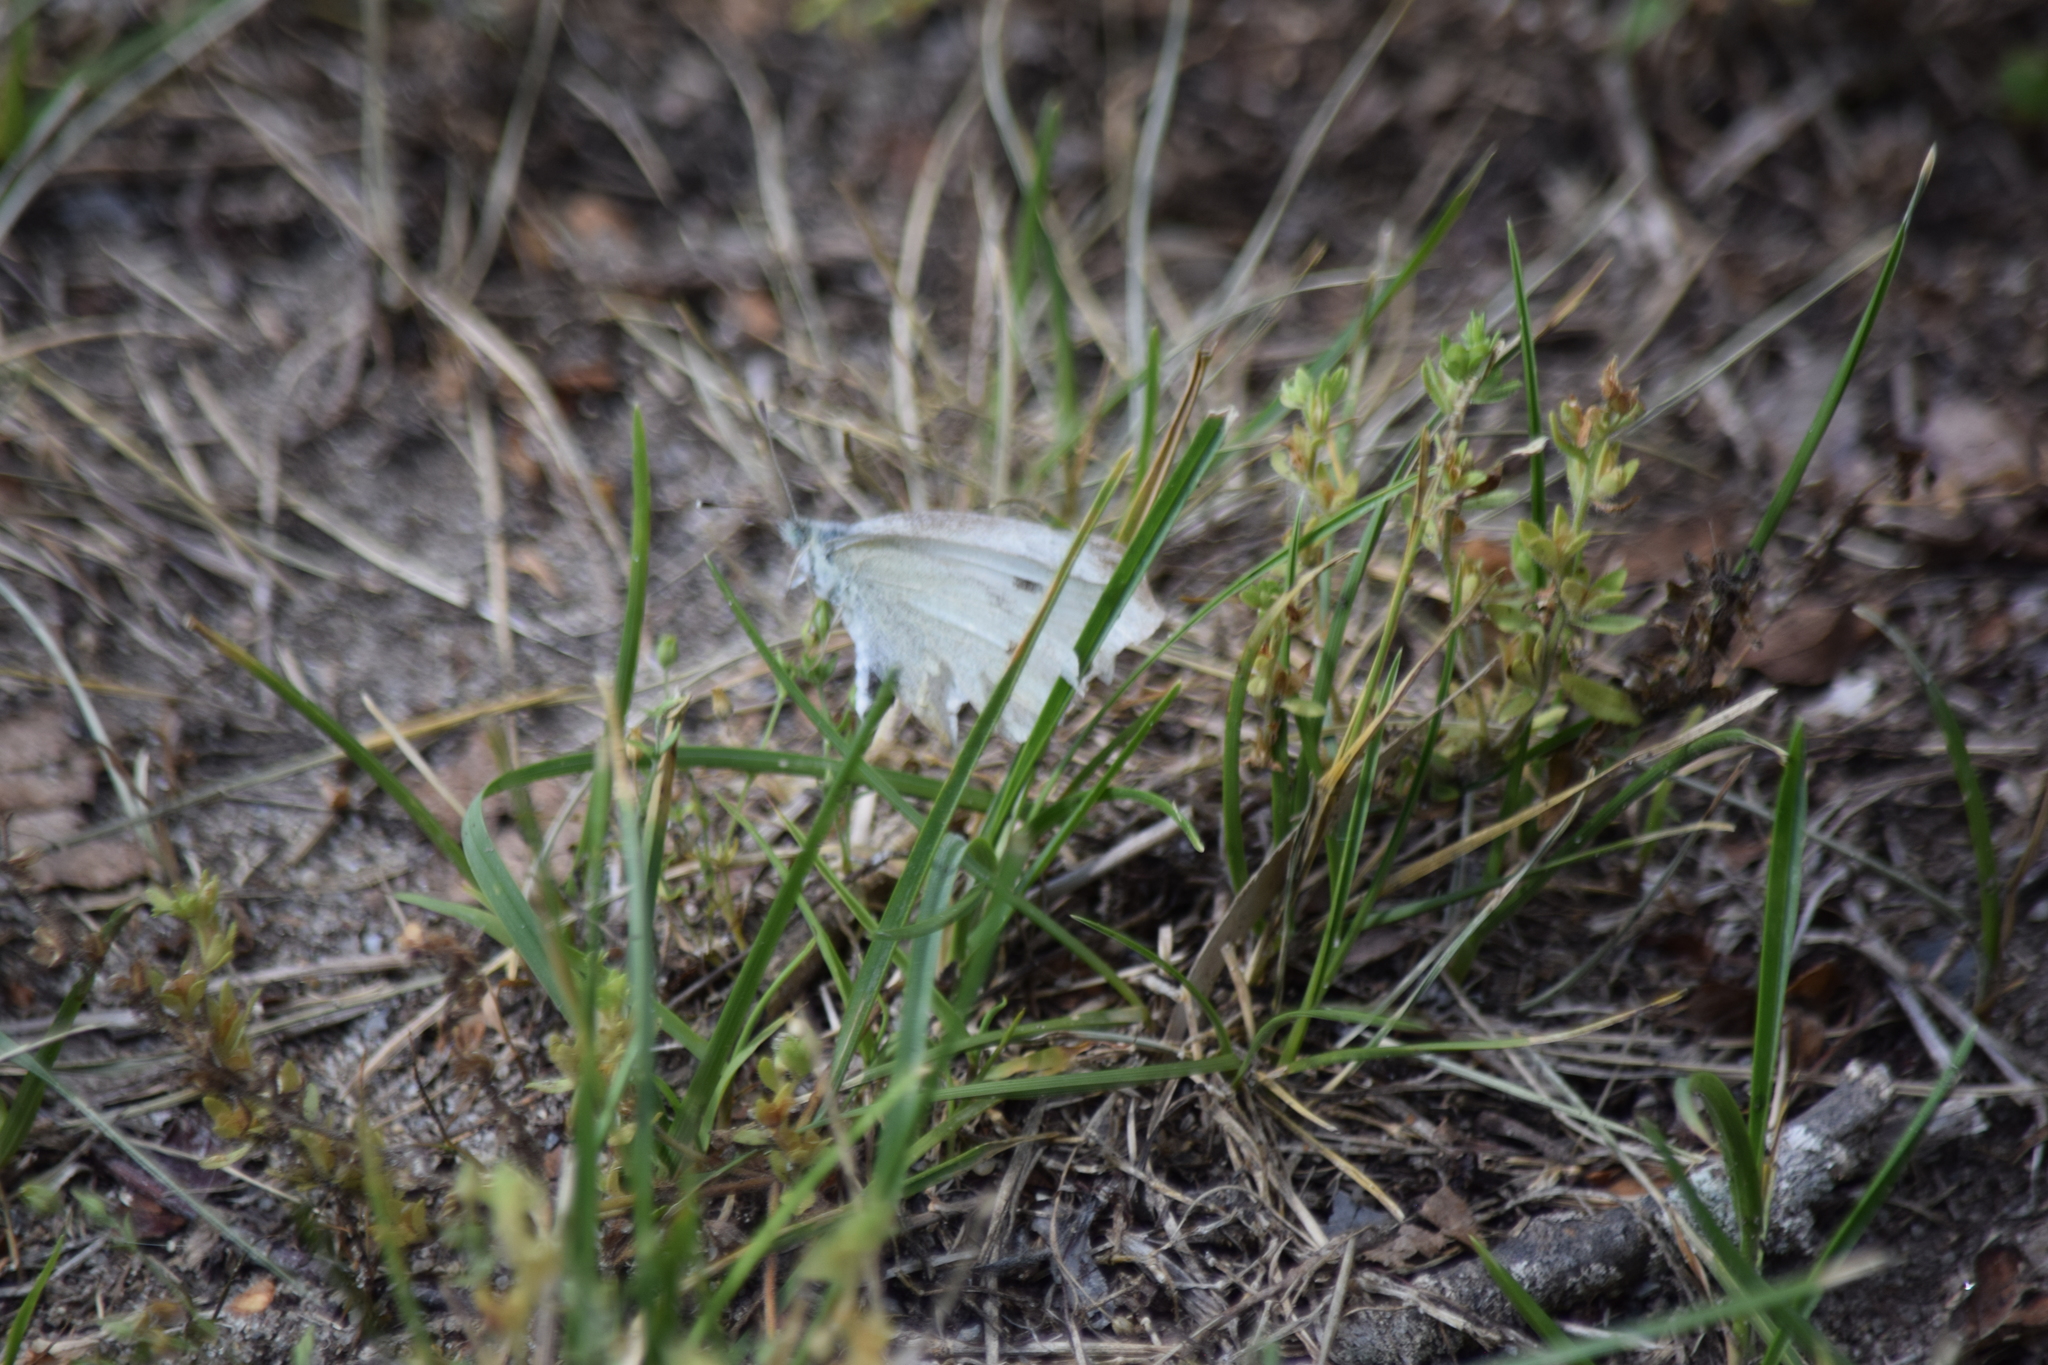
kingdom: Animalia
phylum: Arthropoda
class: Insecta
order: Lepidoptera
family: Pieridae
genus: Pieris
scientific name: Pieris rapae
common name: Small white
